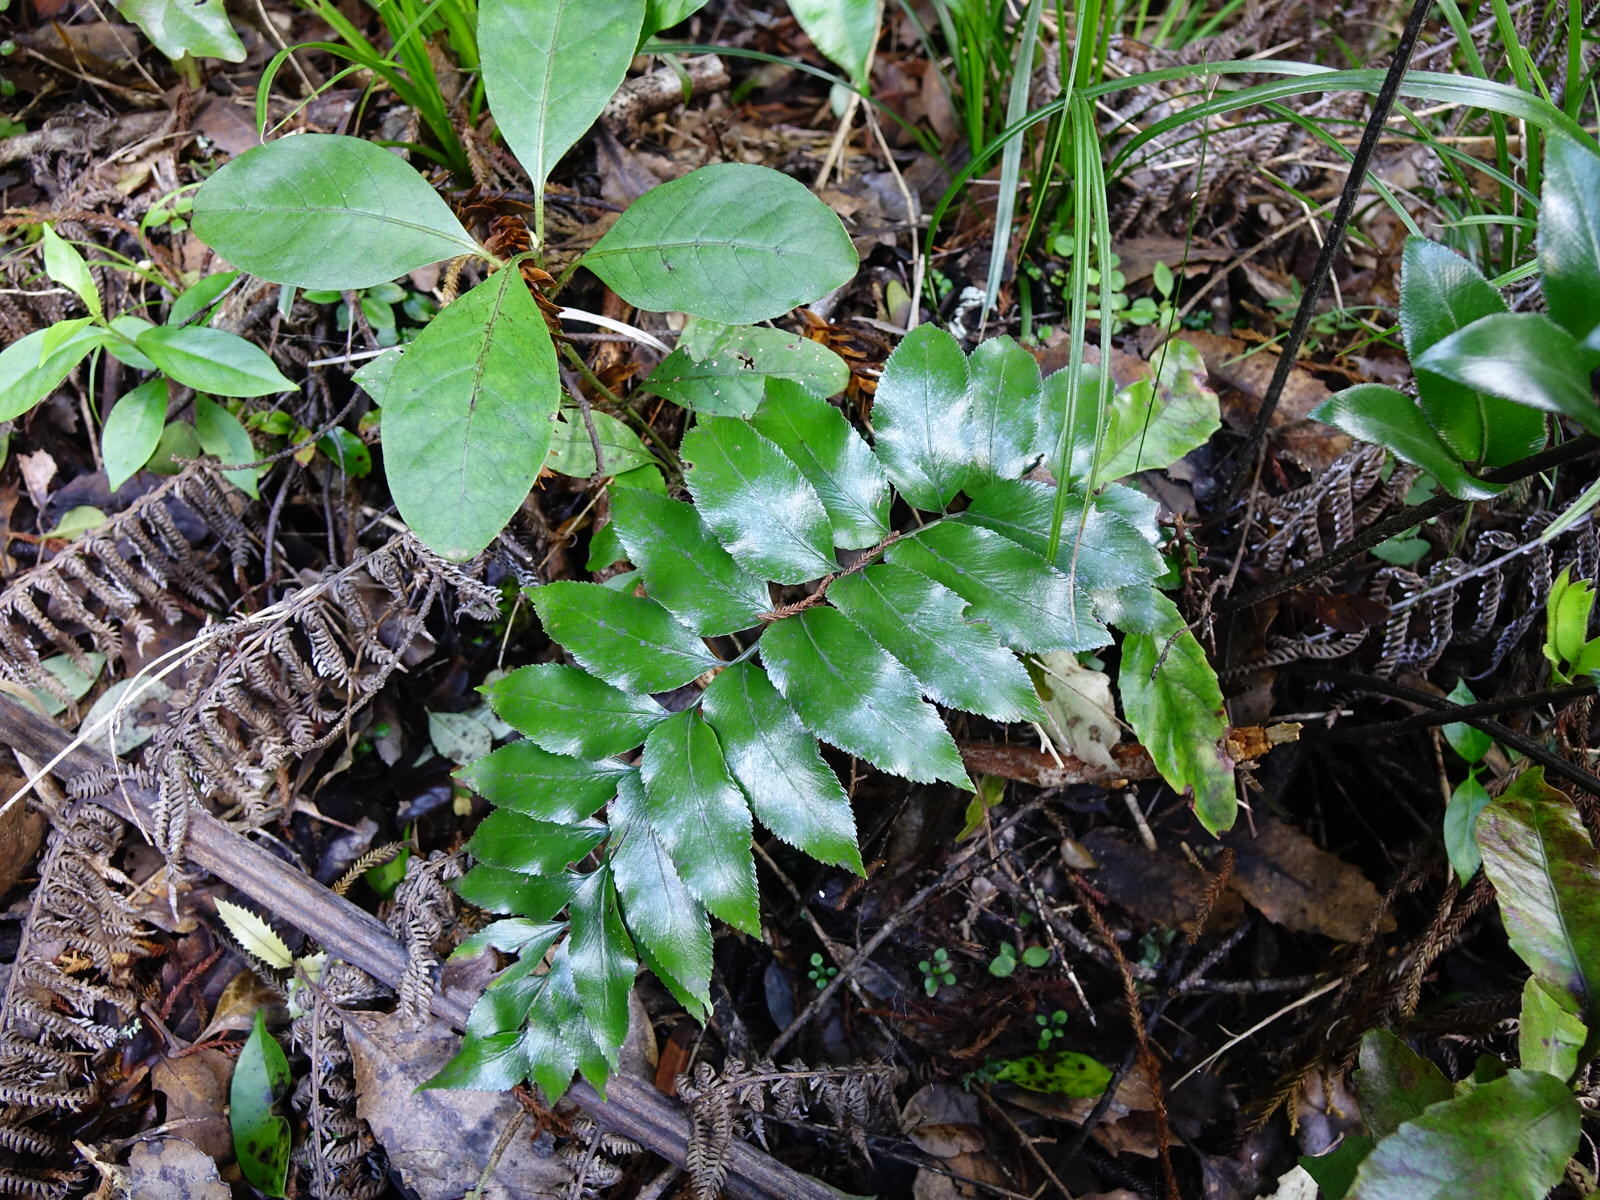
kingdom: Plantae
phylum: Tracheophyta
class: Polypodiopsida
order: Polypodiales
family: Aspleniaceae
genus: Asplenium
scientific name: Asplenium oblongifolium
